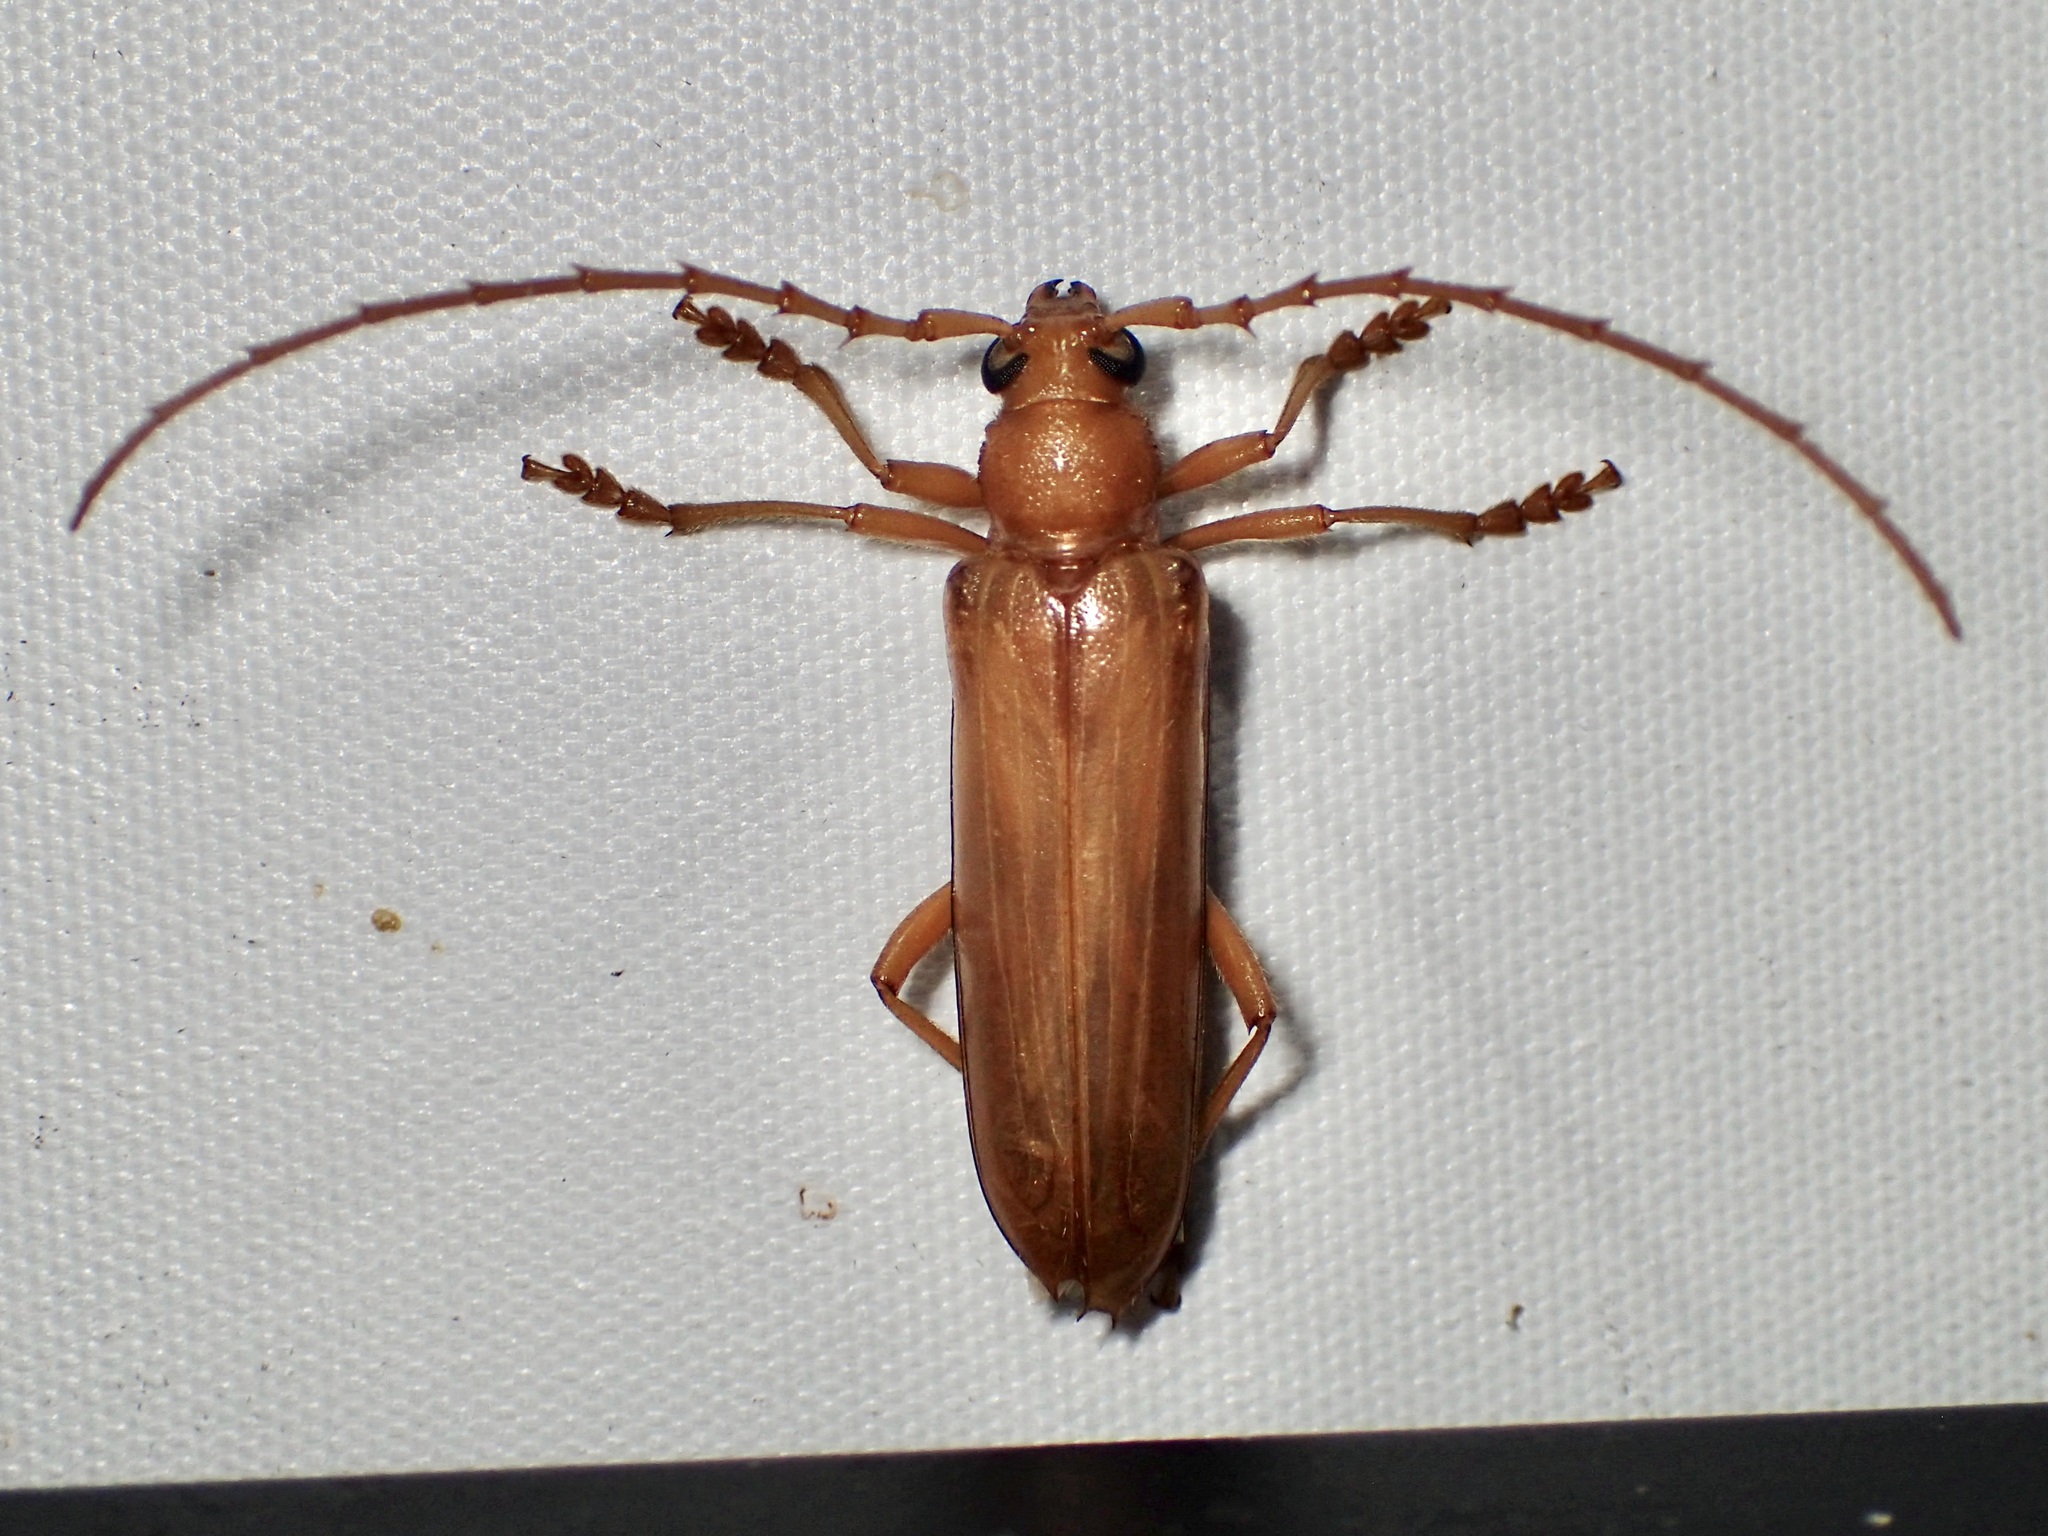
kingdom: Animalia
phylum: Arthropoda
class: Insecta
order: Coleoptera
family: Cerambycidae
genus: Atylostagma
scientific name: Atylostagma polita
